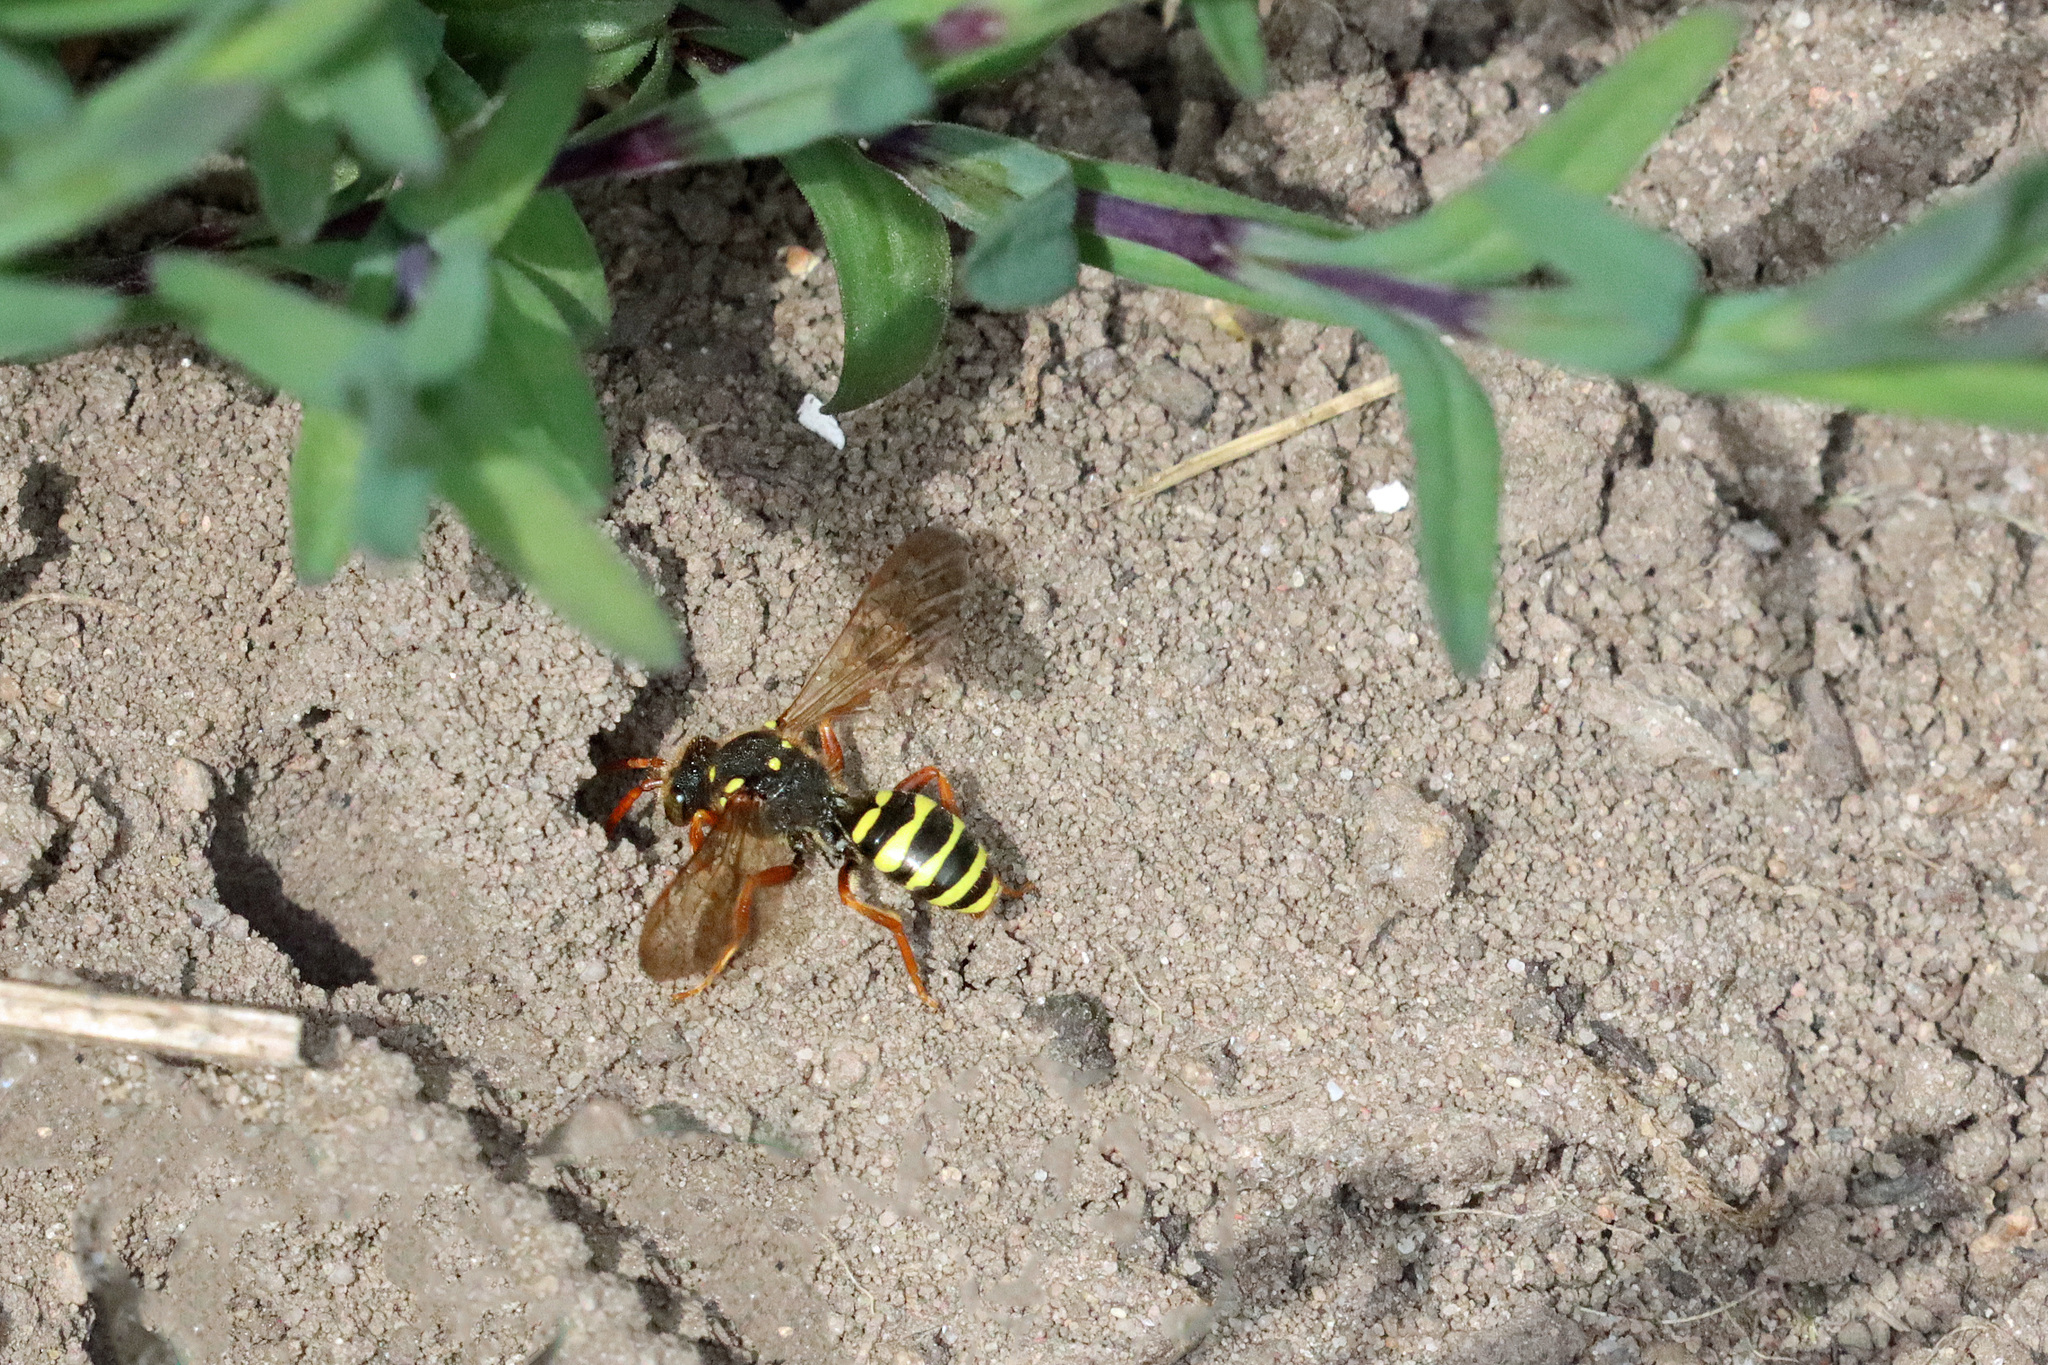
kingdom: Animalia
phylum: Arthropoda
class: Insecta
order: Hymenoptera
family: Apidae
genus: Nomada
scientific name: Nomada goodeniana
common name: Gooden's nomad bee
